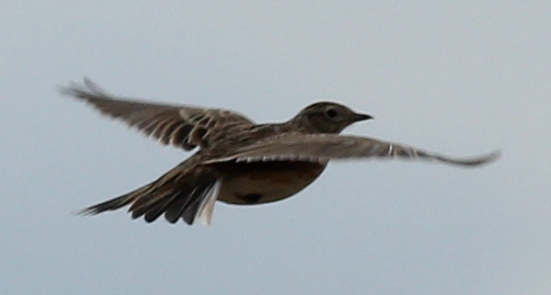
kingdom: Animalia
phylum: Chordata
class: Aves
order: Passeriformes
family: Alaudidae
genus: Alauda
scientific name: Alauda arvensis
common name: Eurasian skylark
